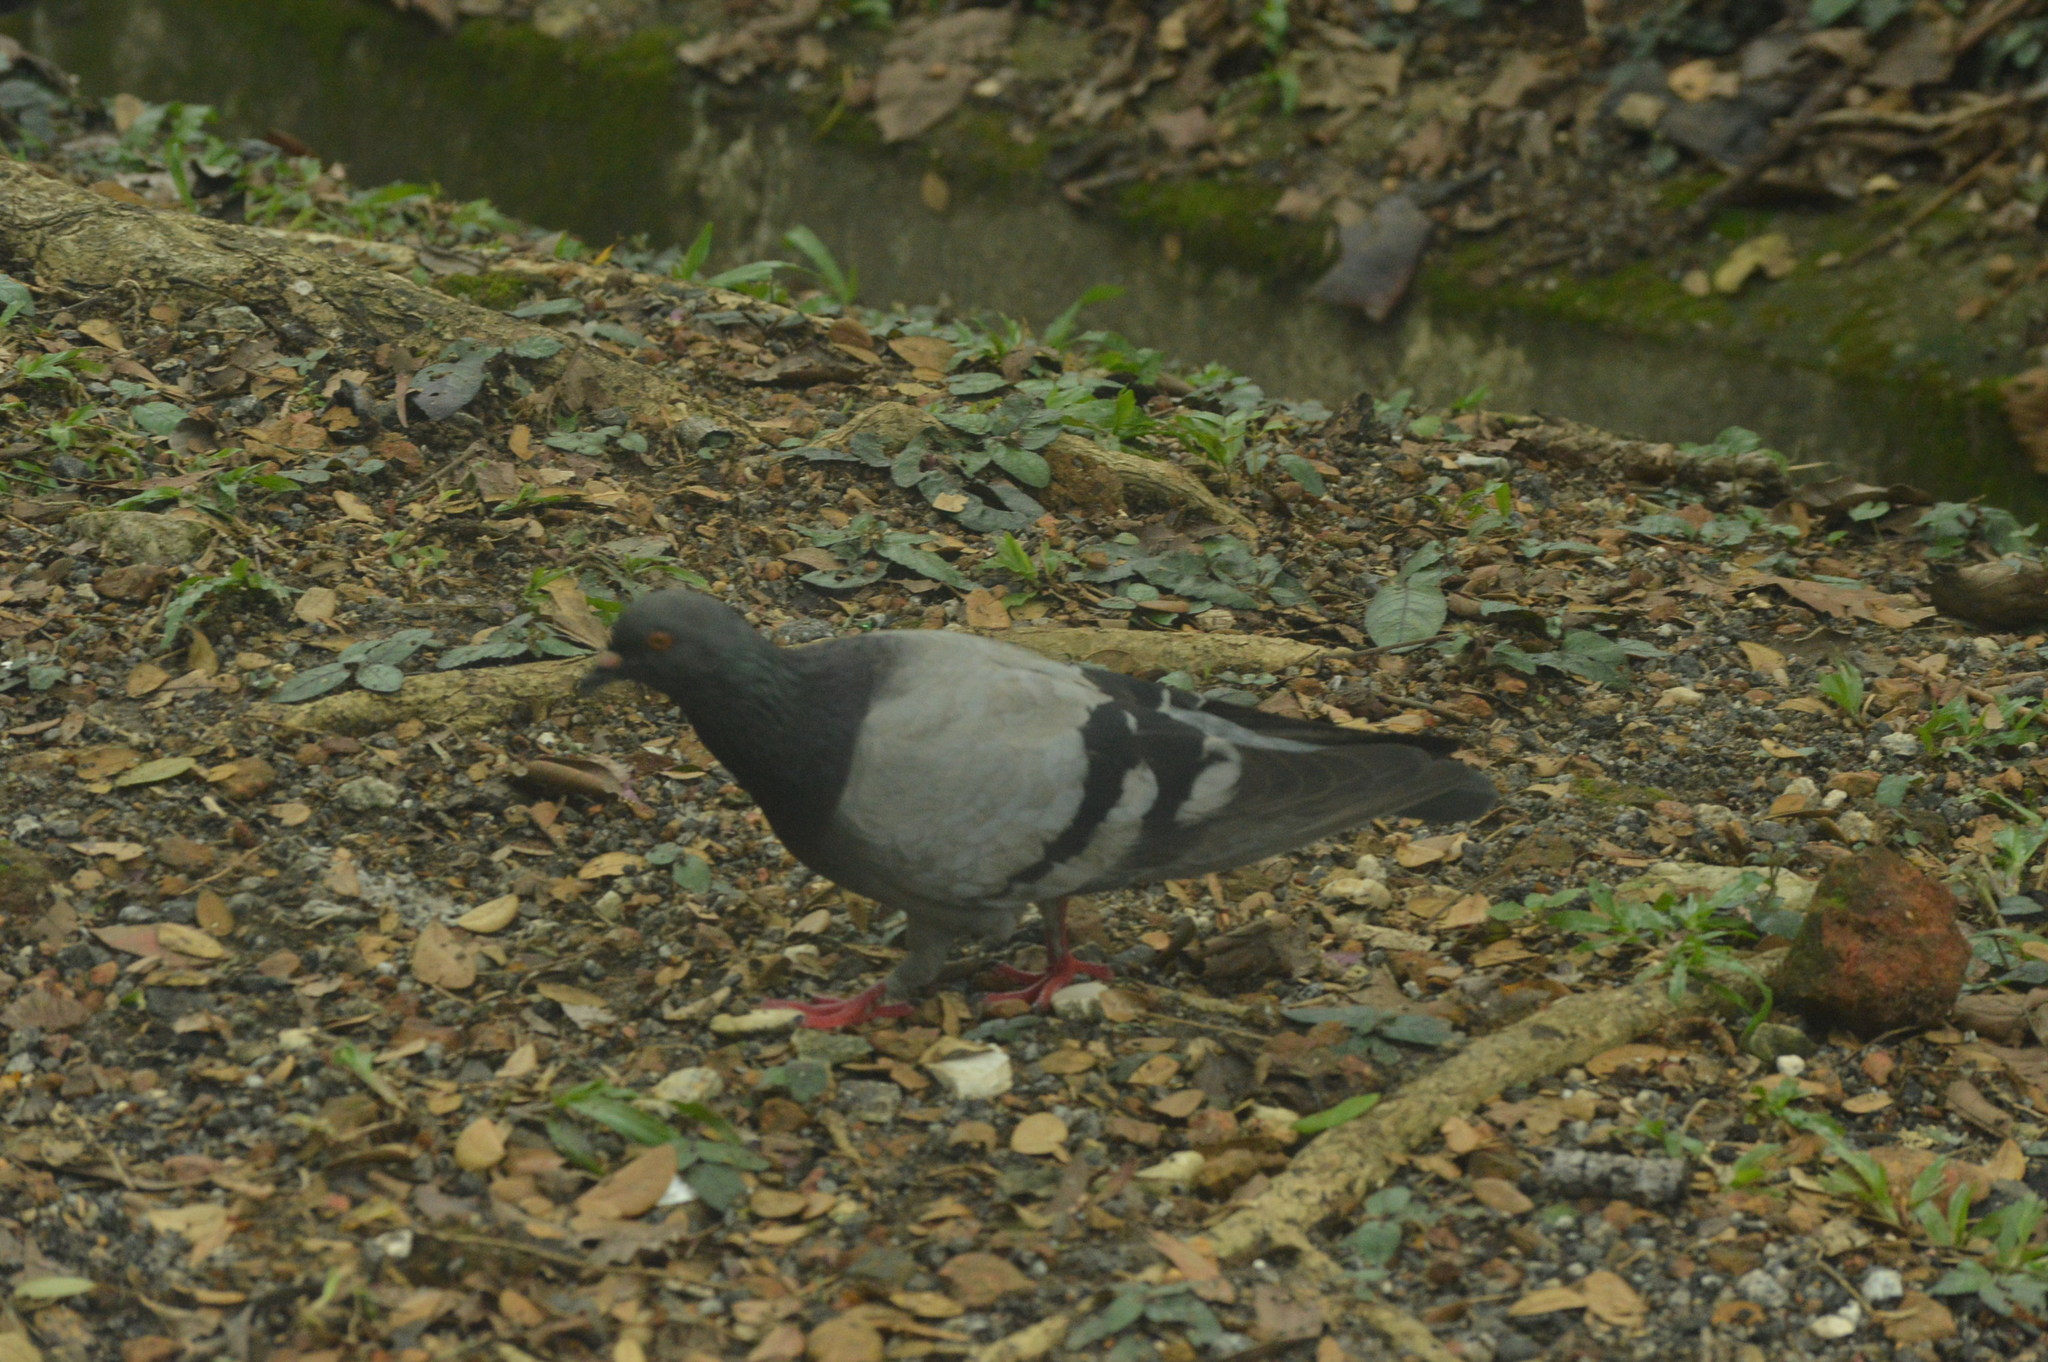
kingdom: Animalia
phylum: Chordata
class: Aves
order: Columbiformes
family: Columbidae
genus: Columba
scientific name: Columba livia
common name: Rock pigeon
